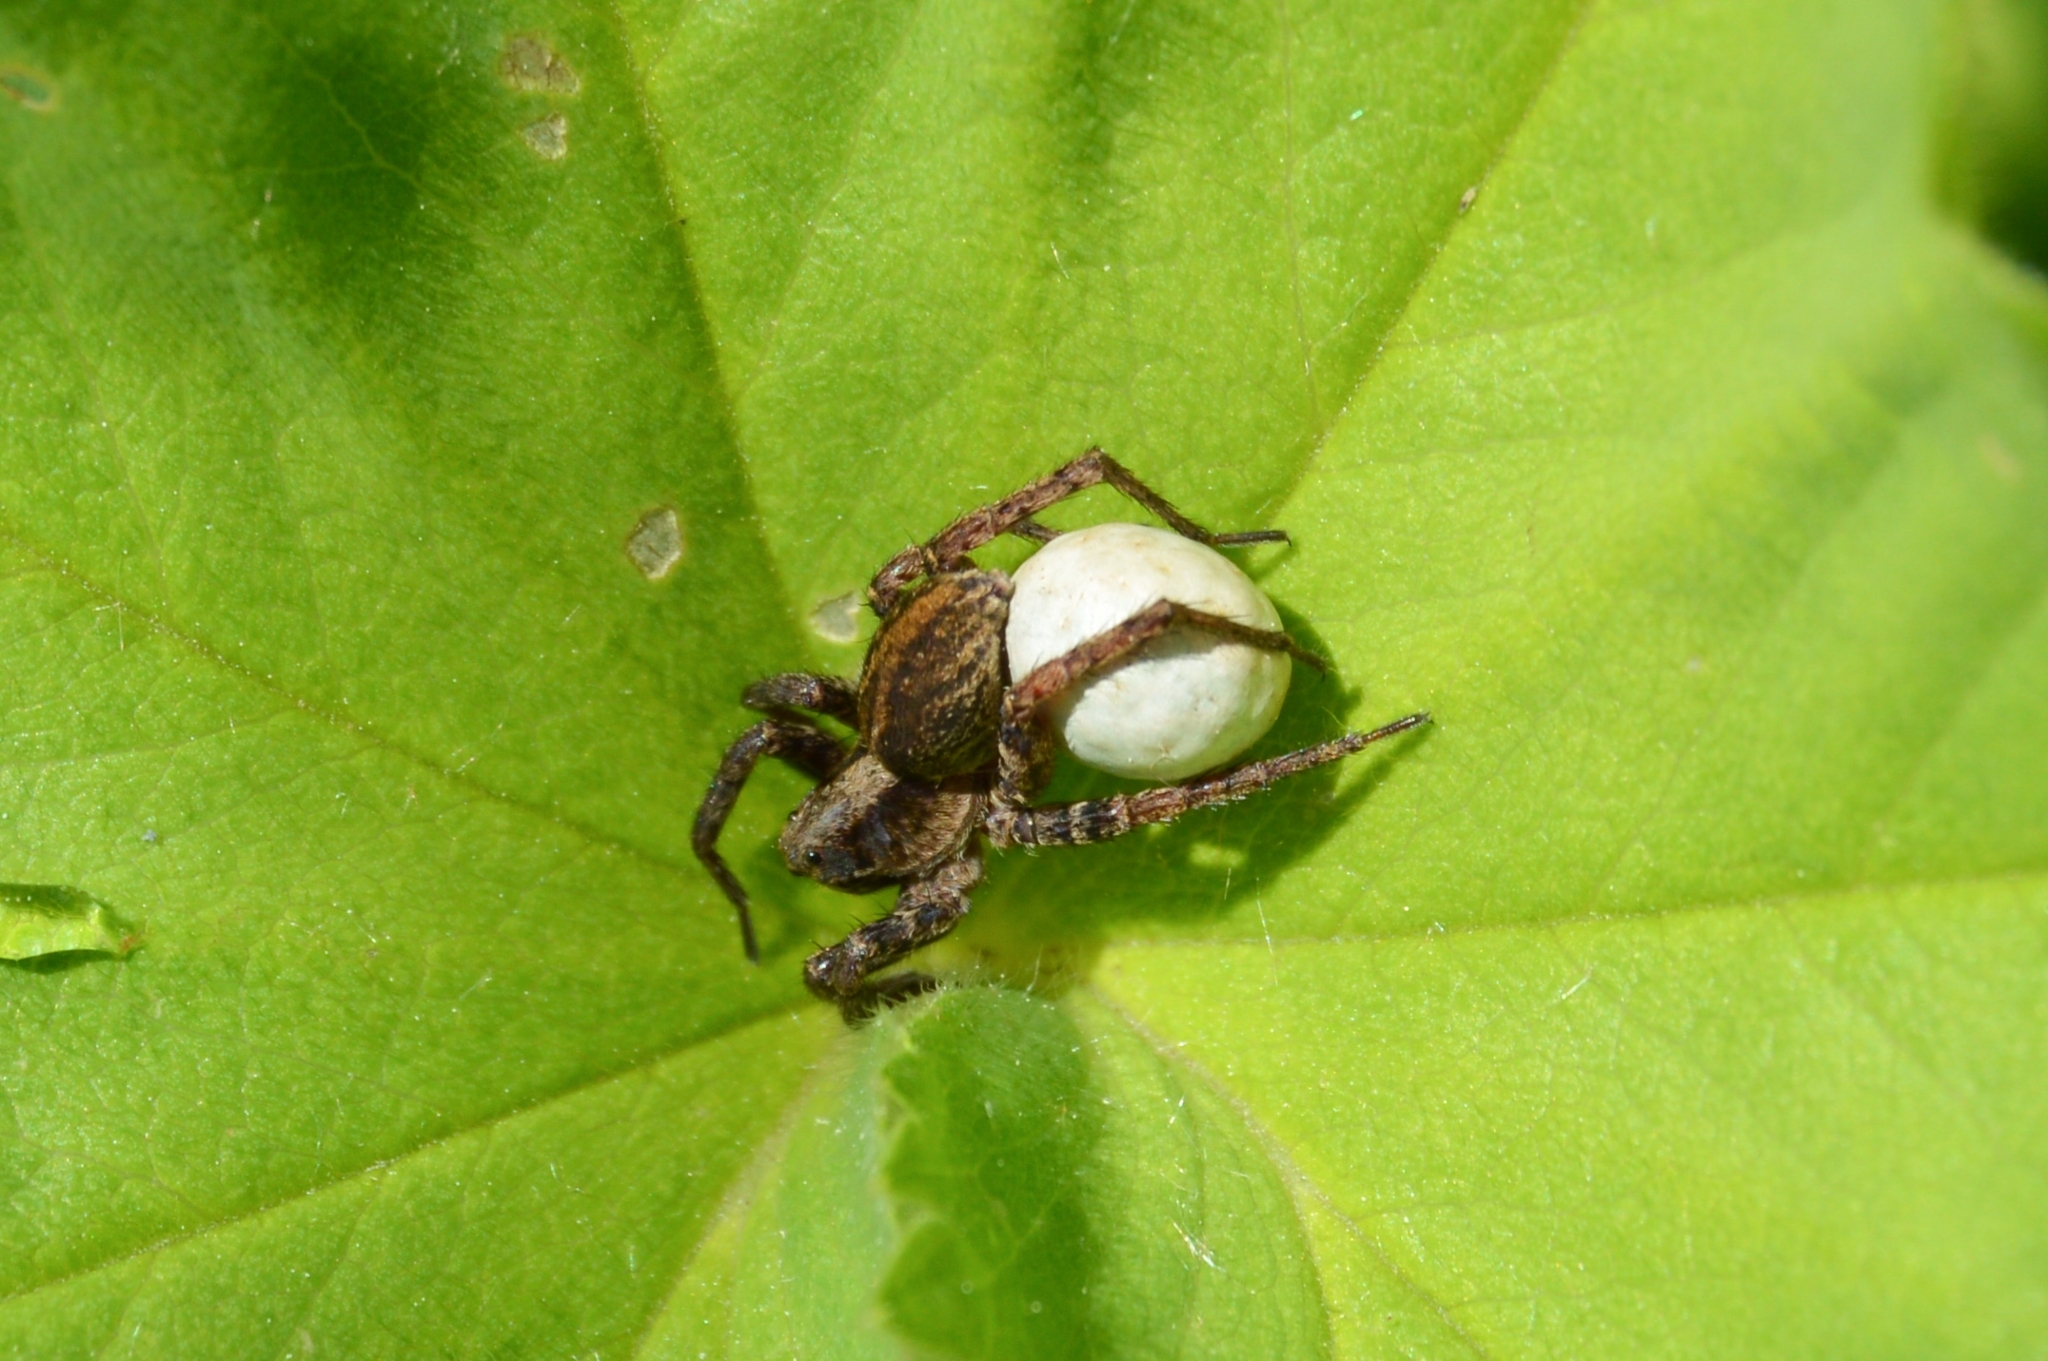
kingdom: Animalia
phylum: Arthropoda
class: Arachnida
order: Araneae
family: Lycosidae
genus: Alopecosa
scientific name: Alopecosa
